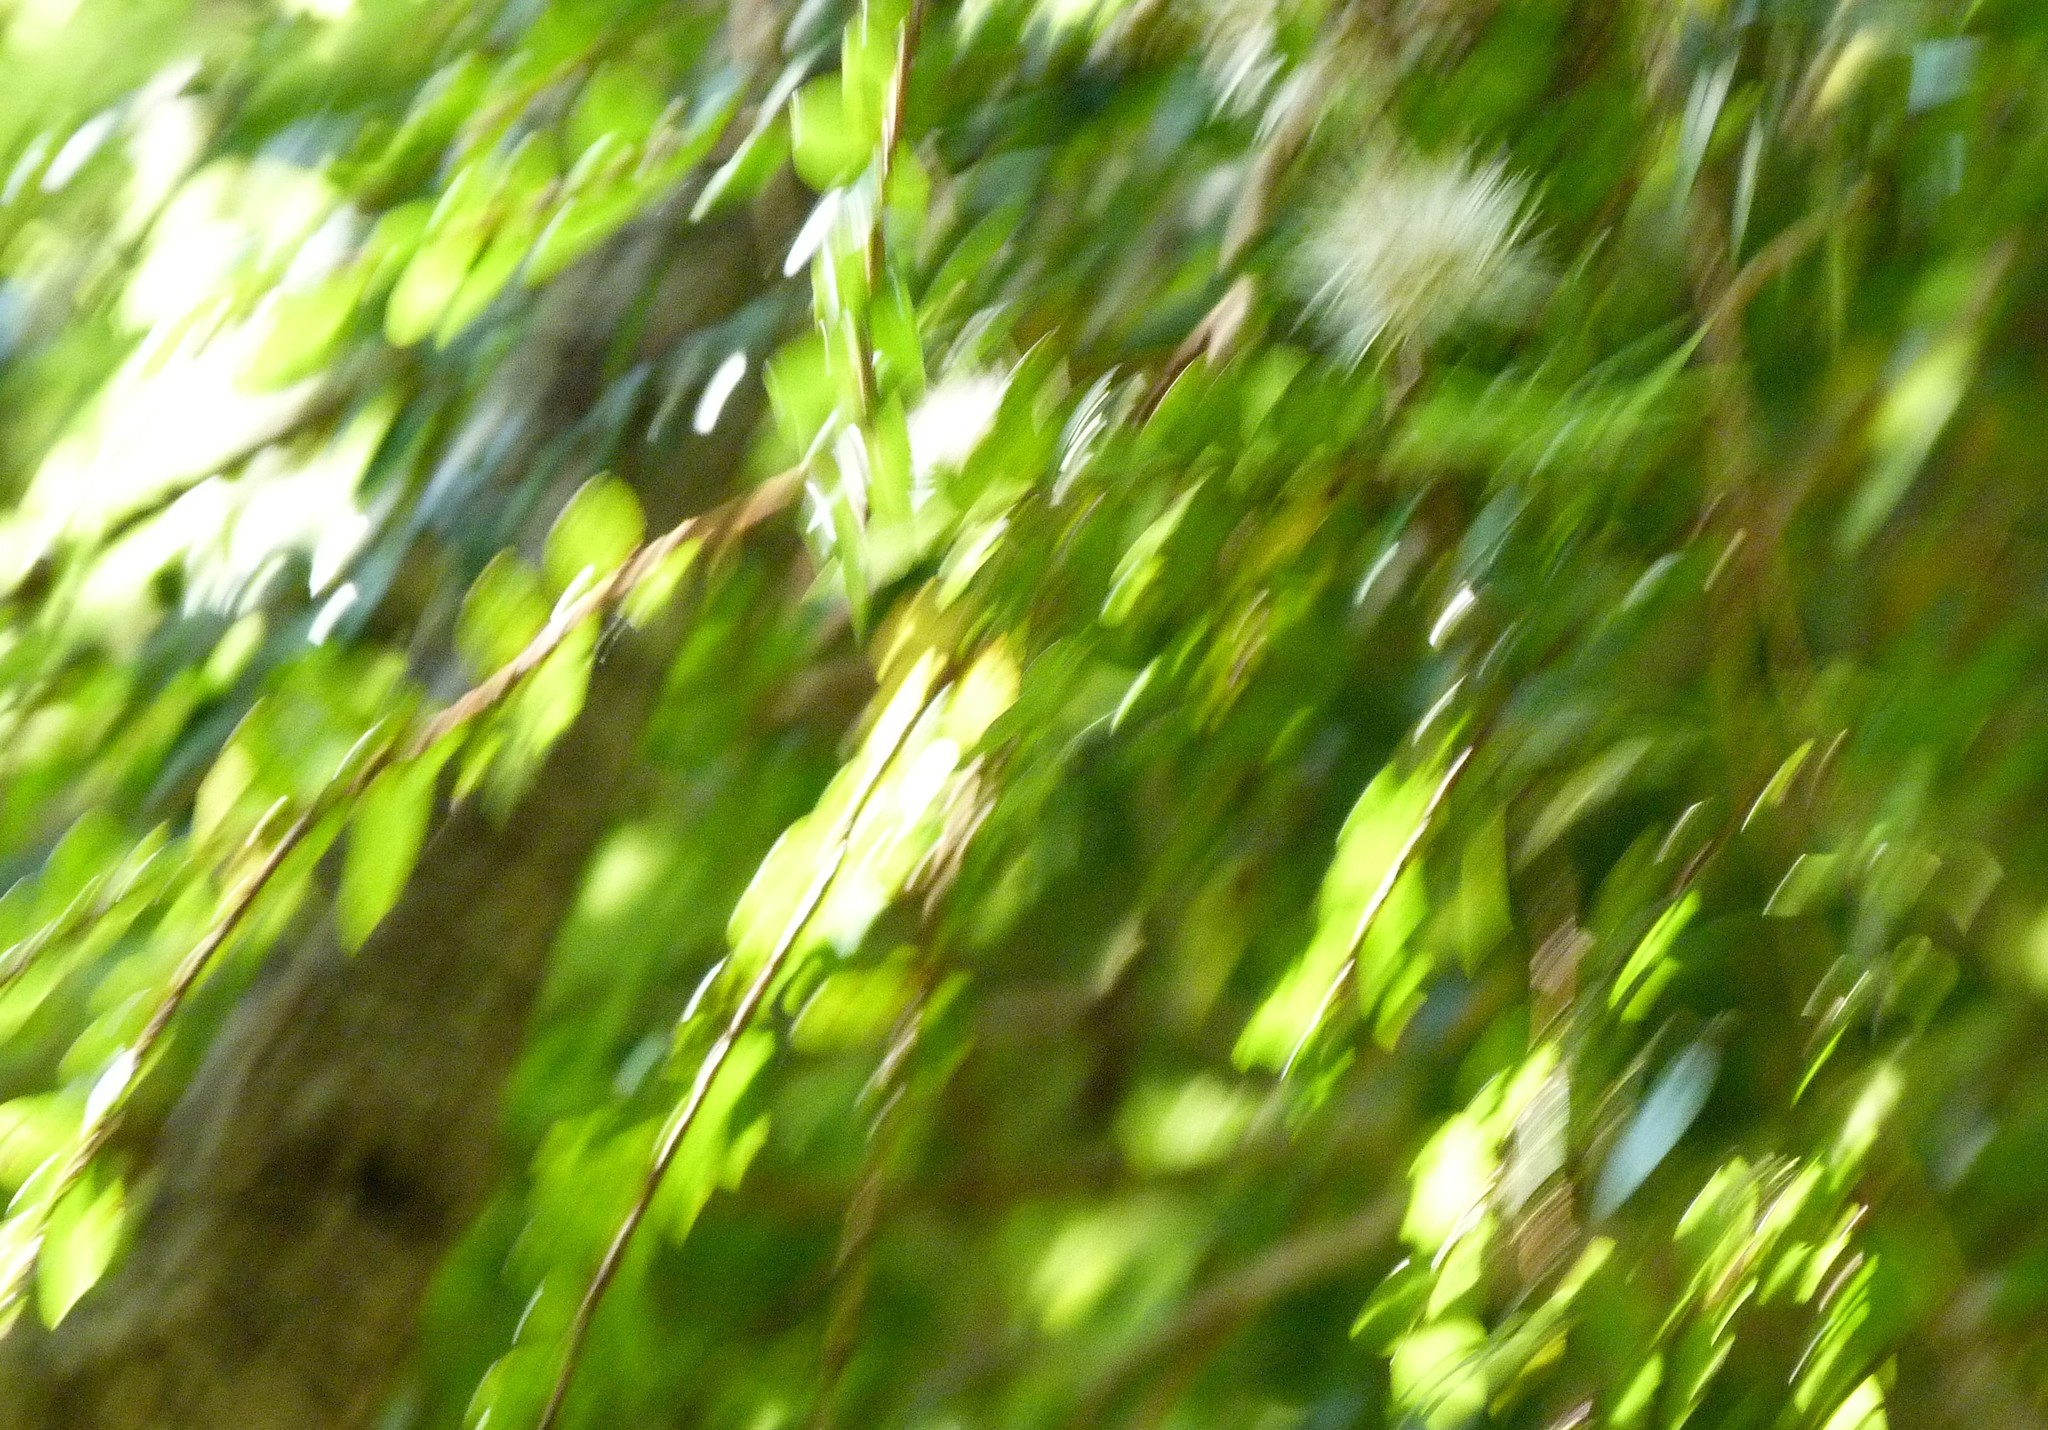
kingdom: Plantae
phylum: Tracheophyta
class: Magnoliopsida
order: Myrtales
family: Myrtaceae
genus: Metrosideros
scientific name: Metrosideros diffusa
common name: Small ratavine
